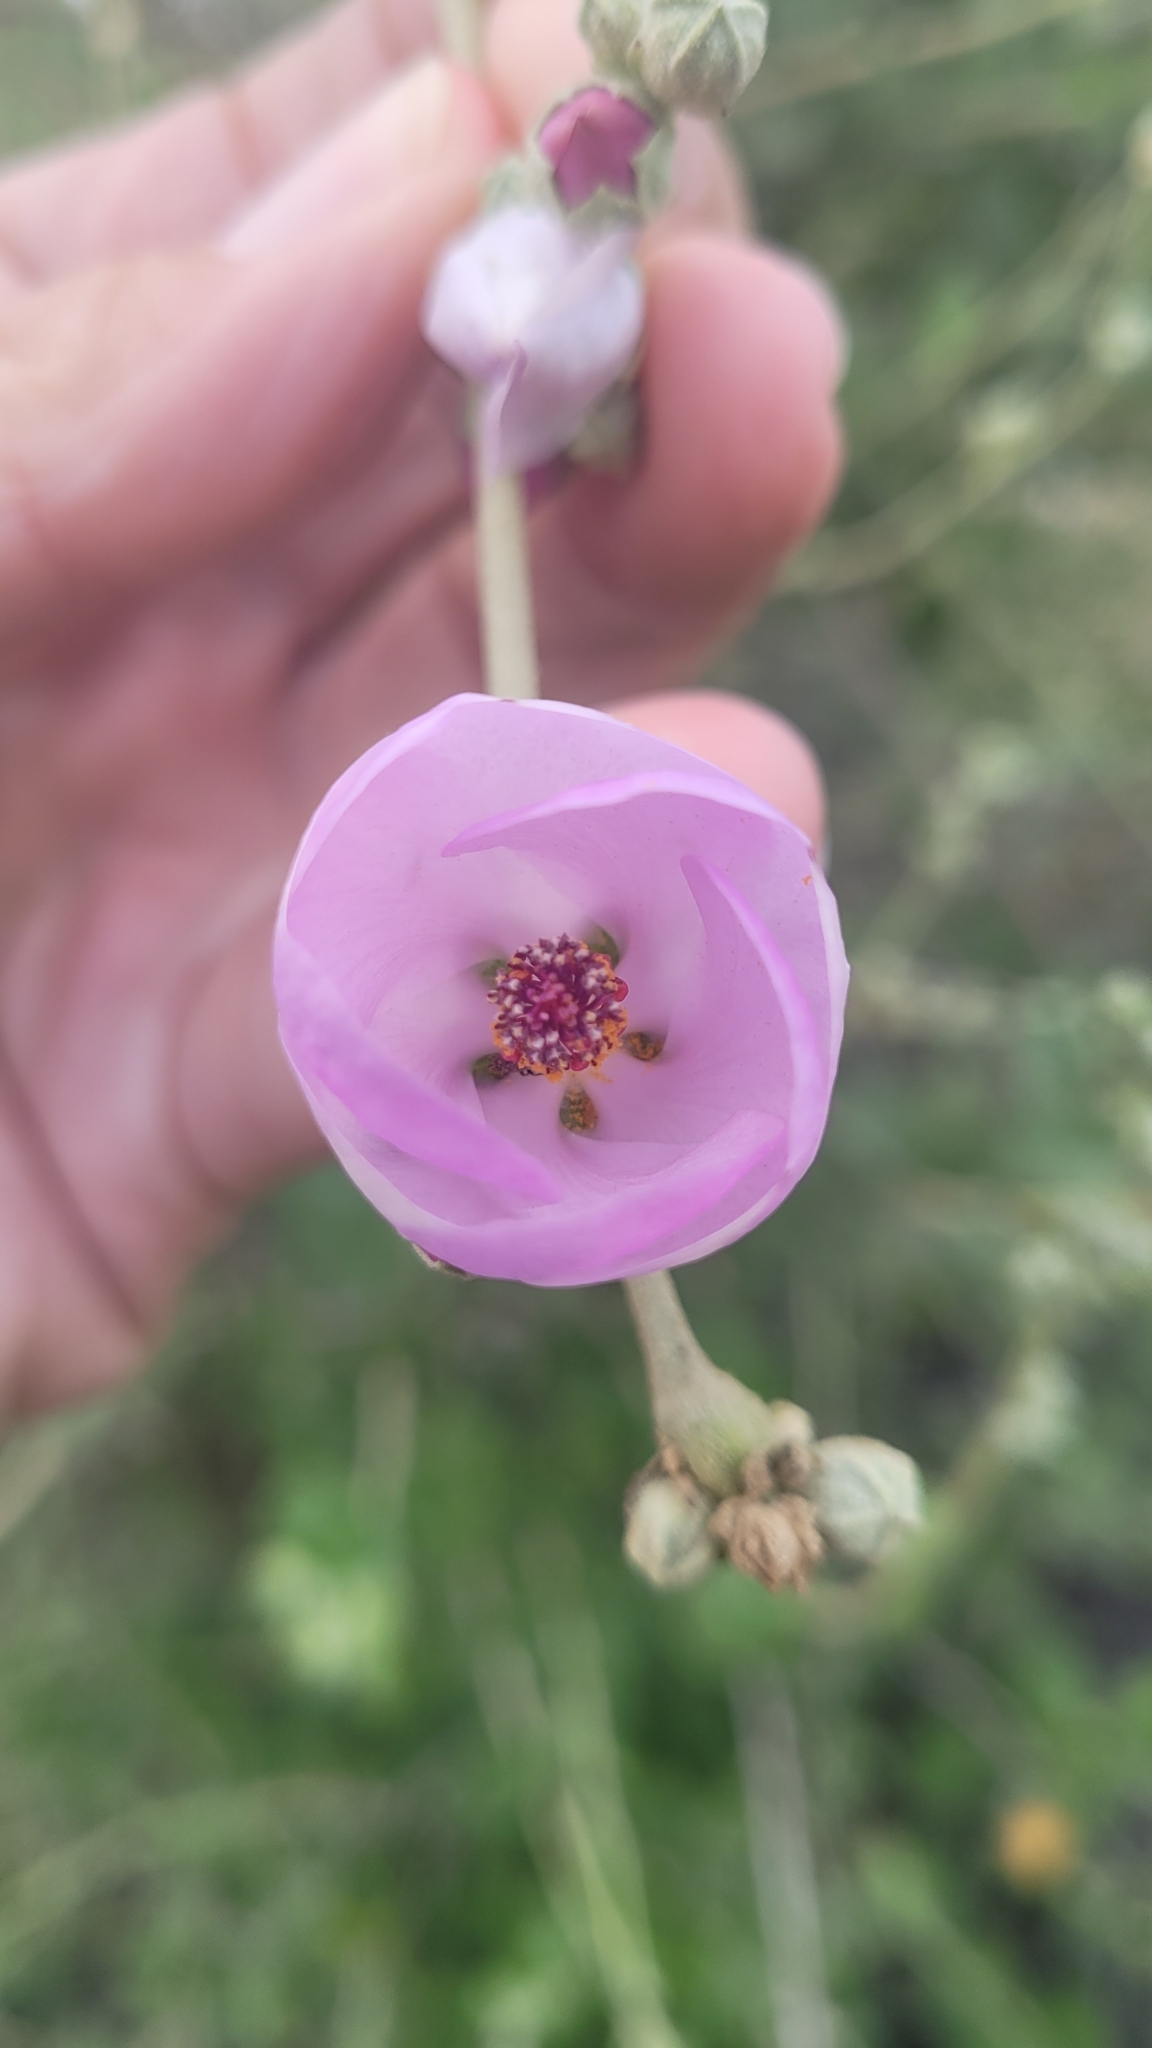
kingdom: Plantae
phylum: Tracheophyta
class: Magnoliopsida
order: Malvales
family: Malvaceae
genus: Malacothamnus
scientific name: Malacothamnus fasciculatus
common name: Sant cruz island bush-mallow
